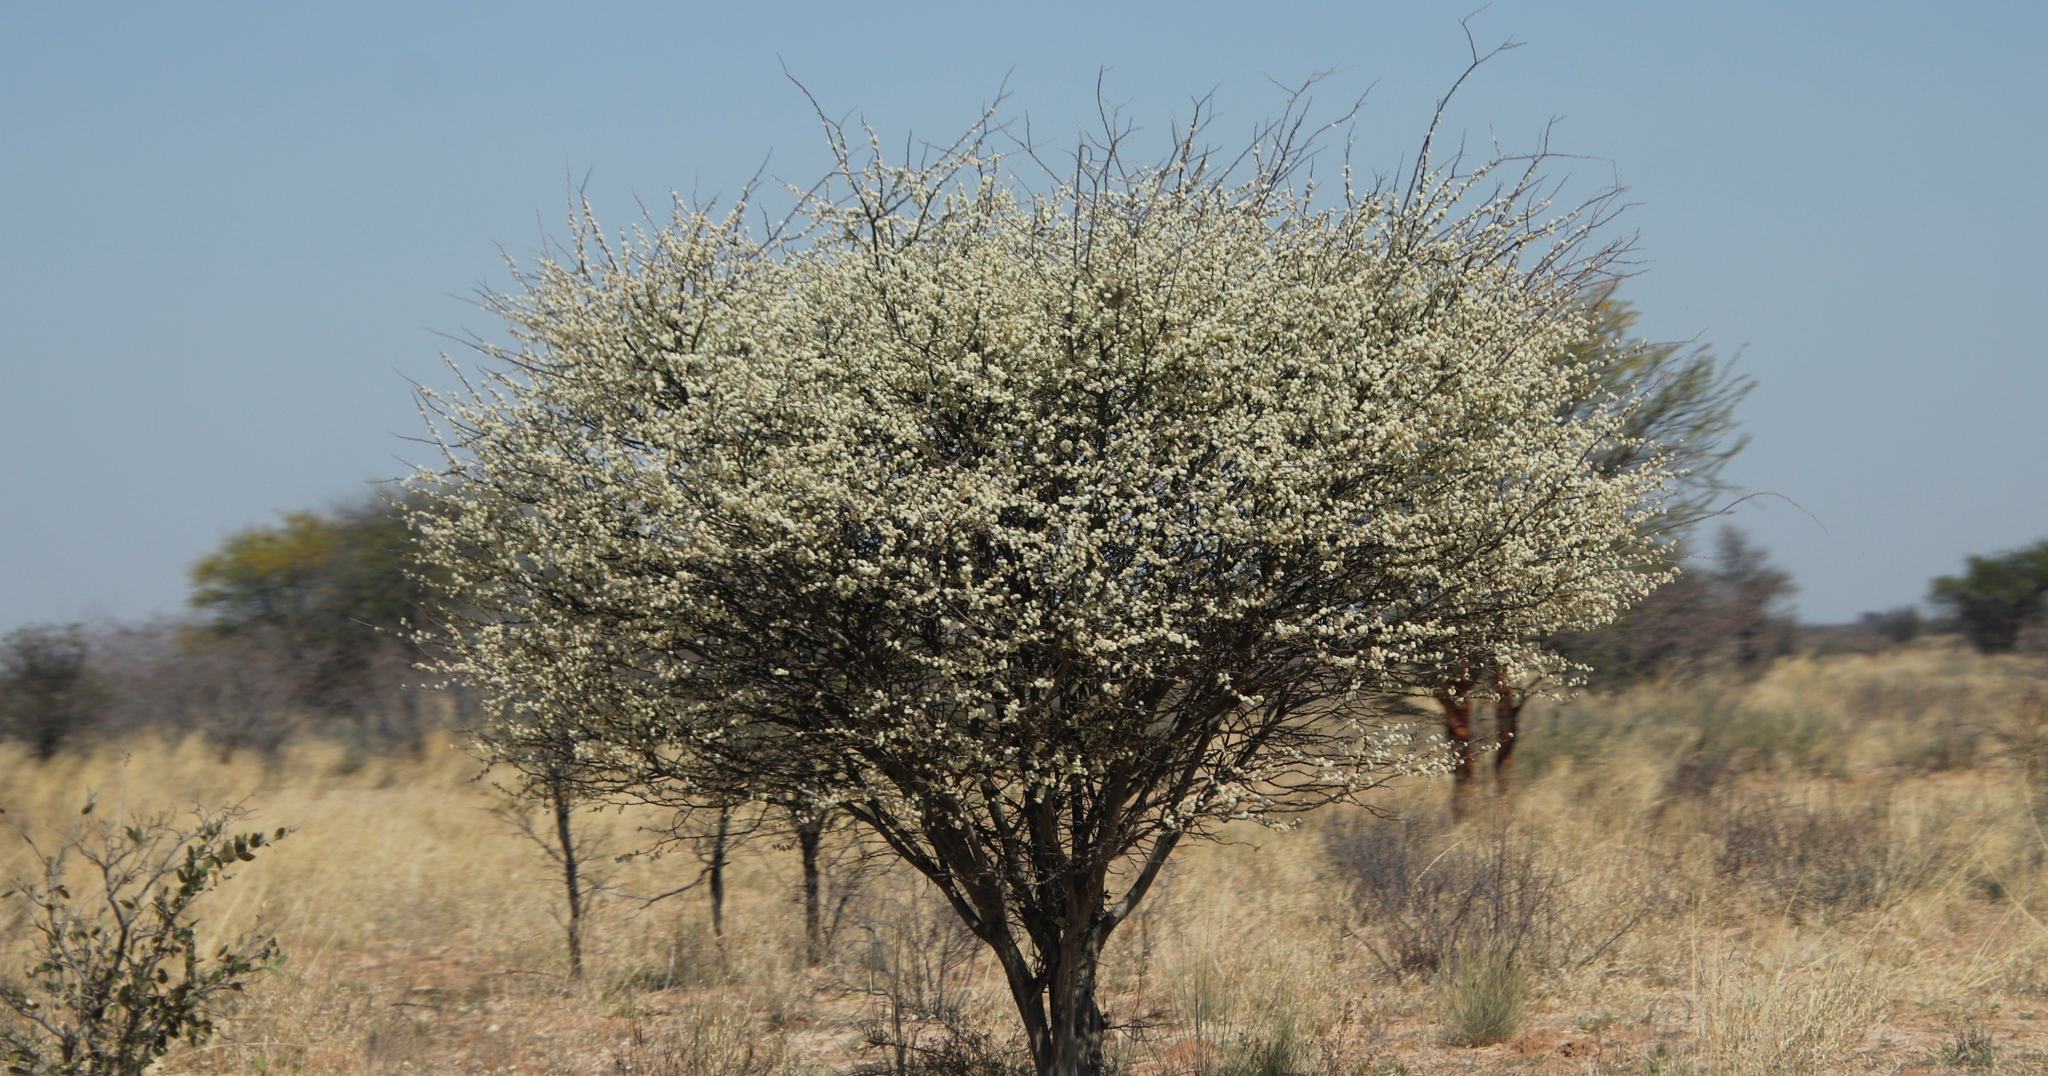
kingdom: Plantae
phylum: Tracheophyta
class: Magnoliopsida
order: Fabales
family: Fabaceae
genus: Senegalia
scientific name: Senegalia mellifera
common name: Hookthorn
